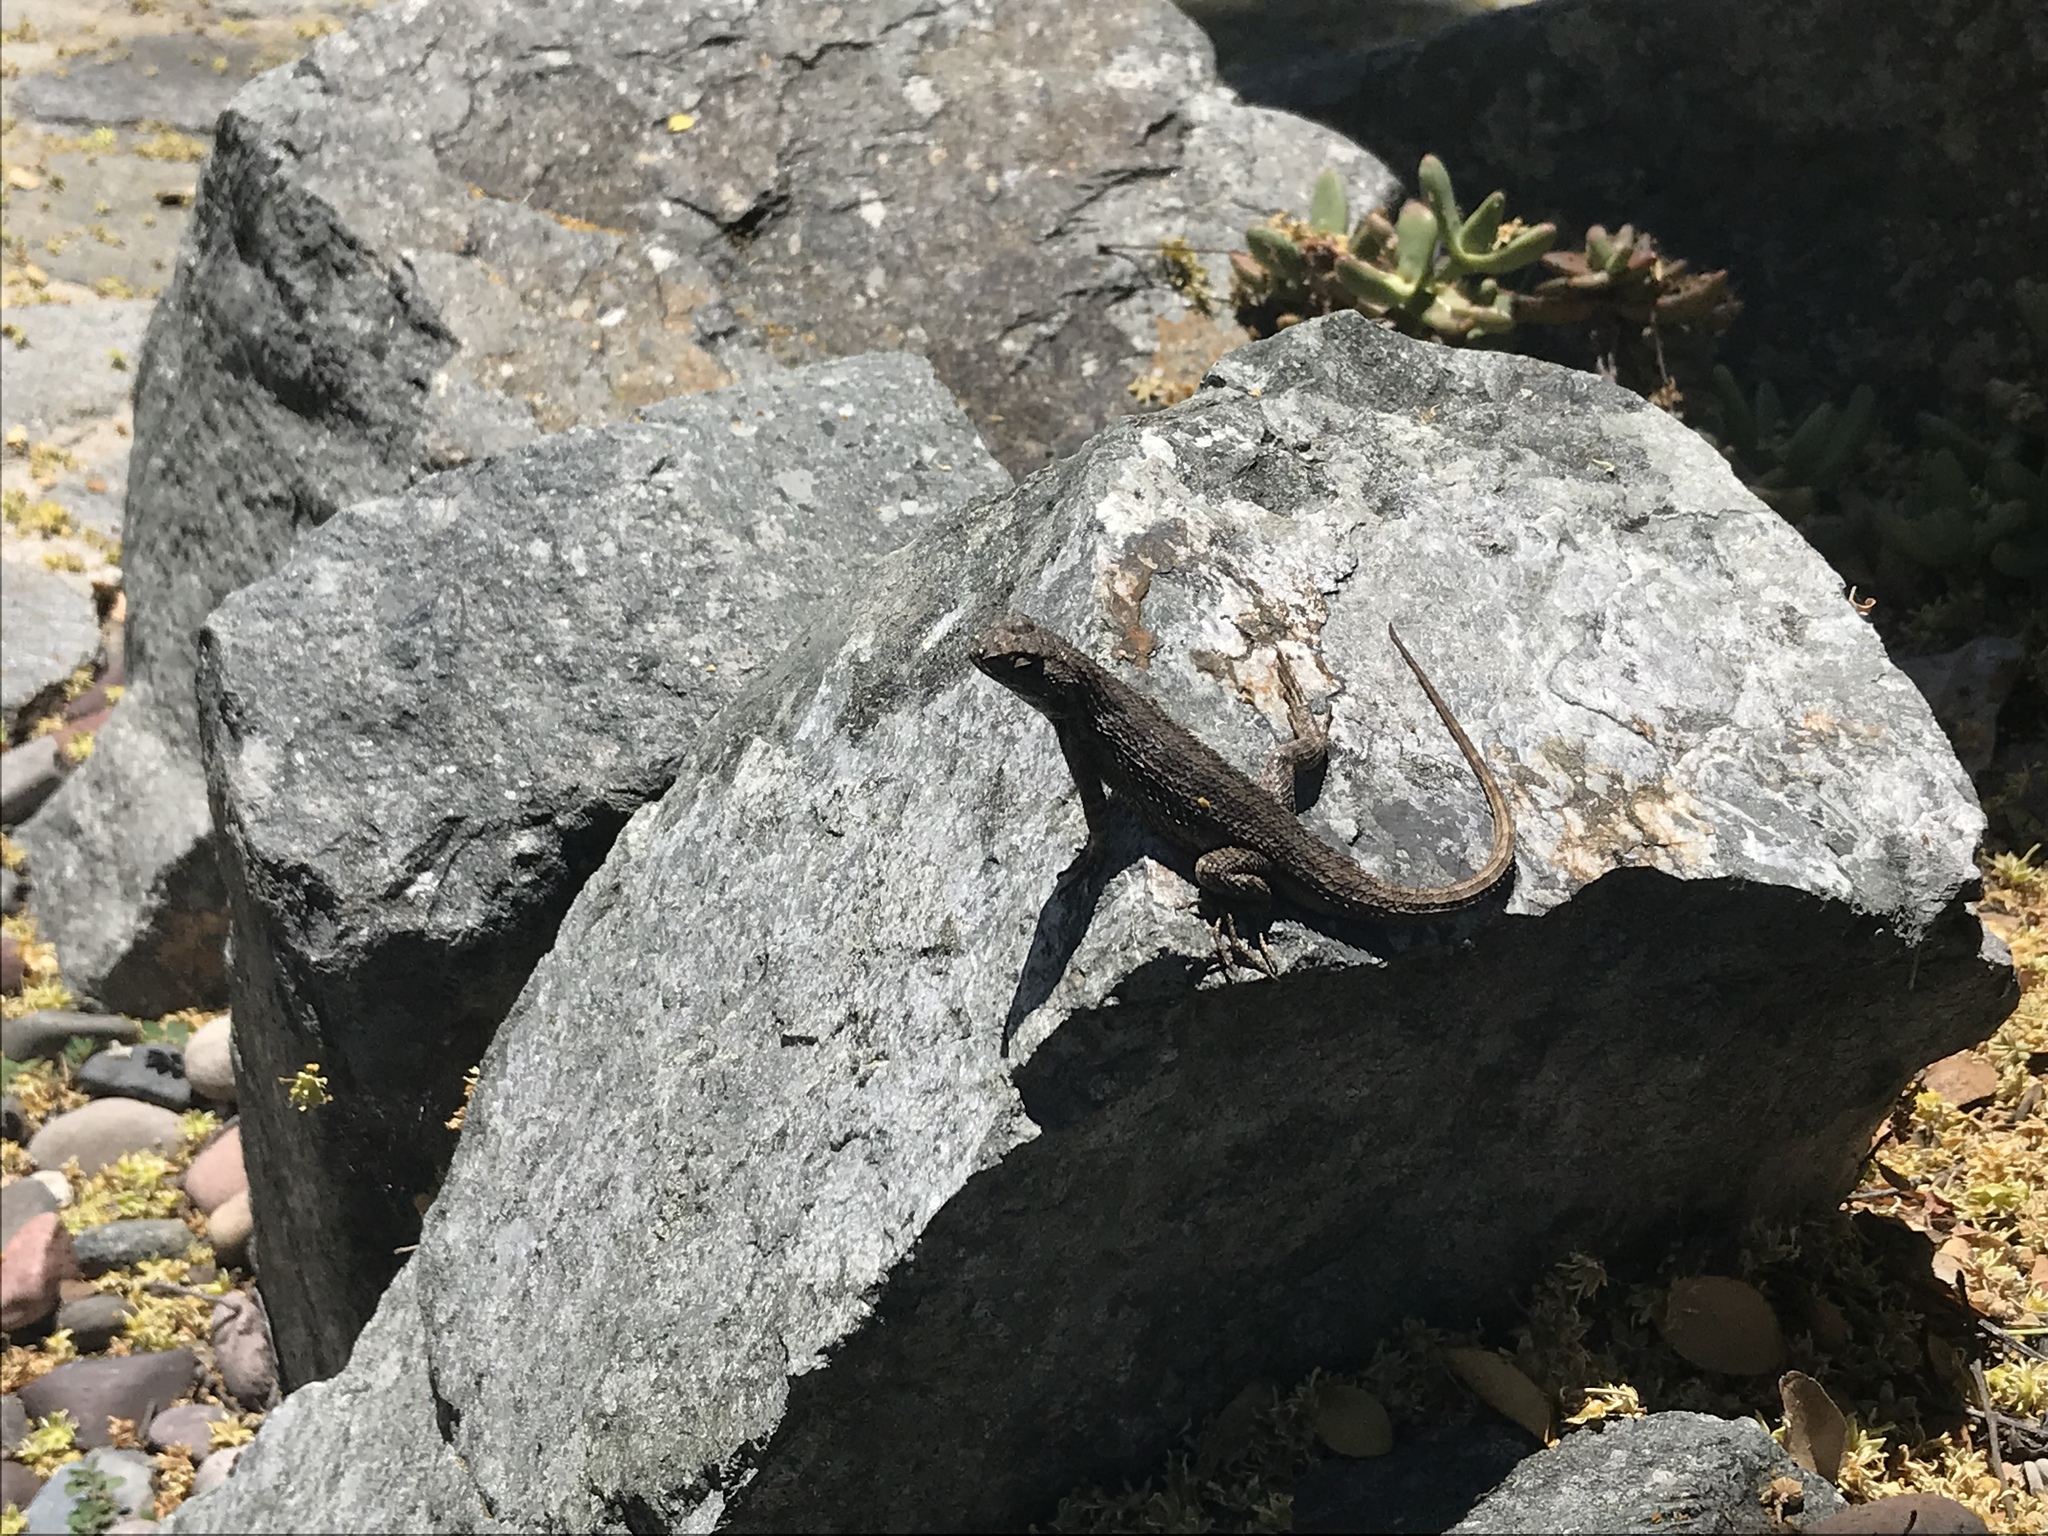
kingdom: Animalia
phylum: Chordata
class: Squamata
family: Phrynosomatidae
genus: Sceloporus
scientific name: Sceloporus occidentalis
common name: Western fence lizard
